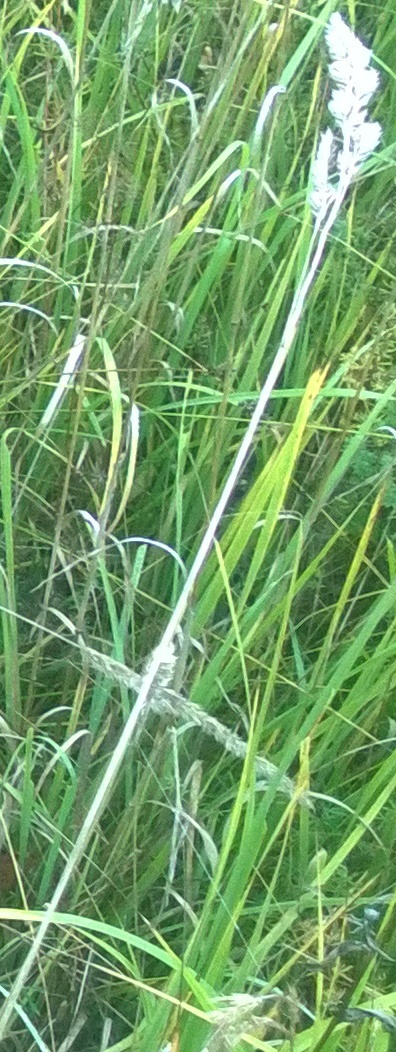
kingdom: Plantae
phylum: Tracheophyta
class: Liliopsida
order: Poales
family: Poaceae
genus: Dactylis
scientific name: Dactylis glomerata
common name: Orchardgrass
